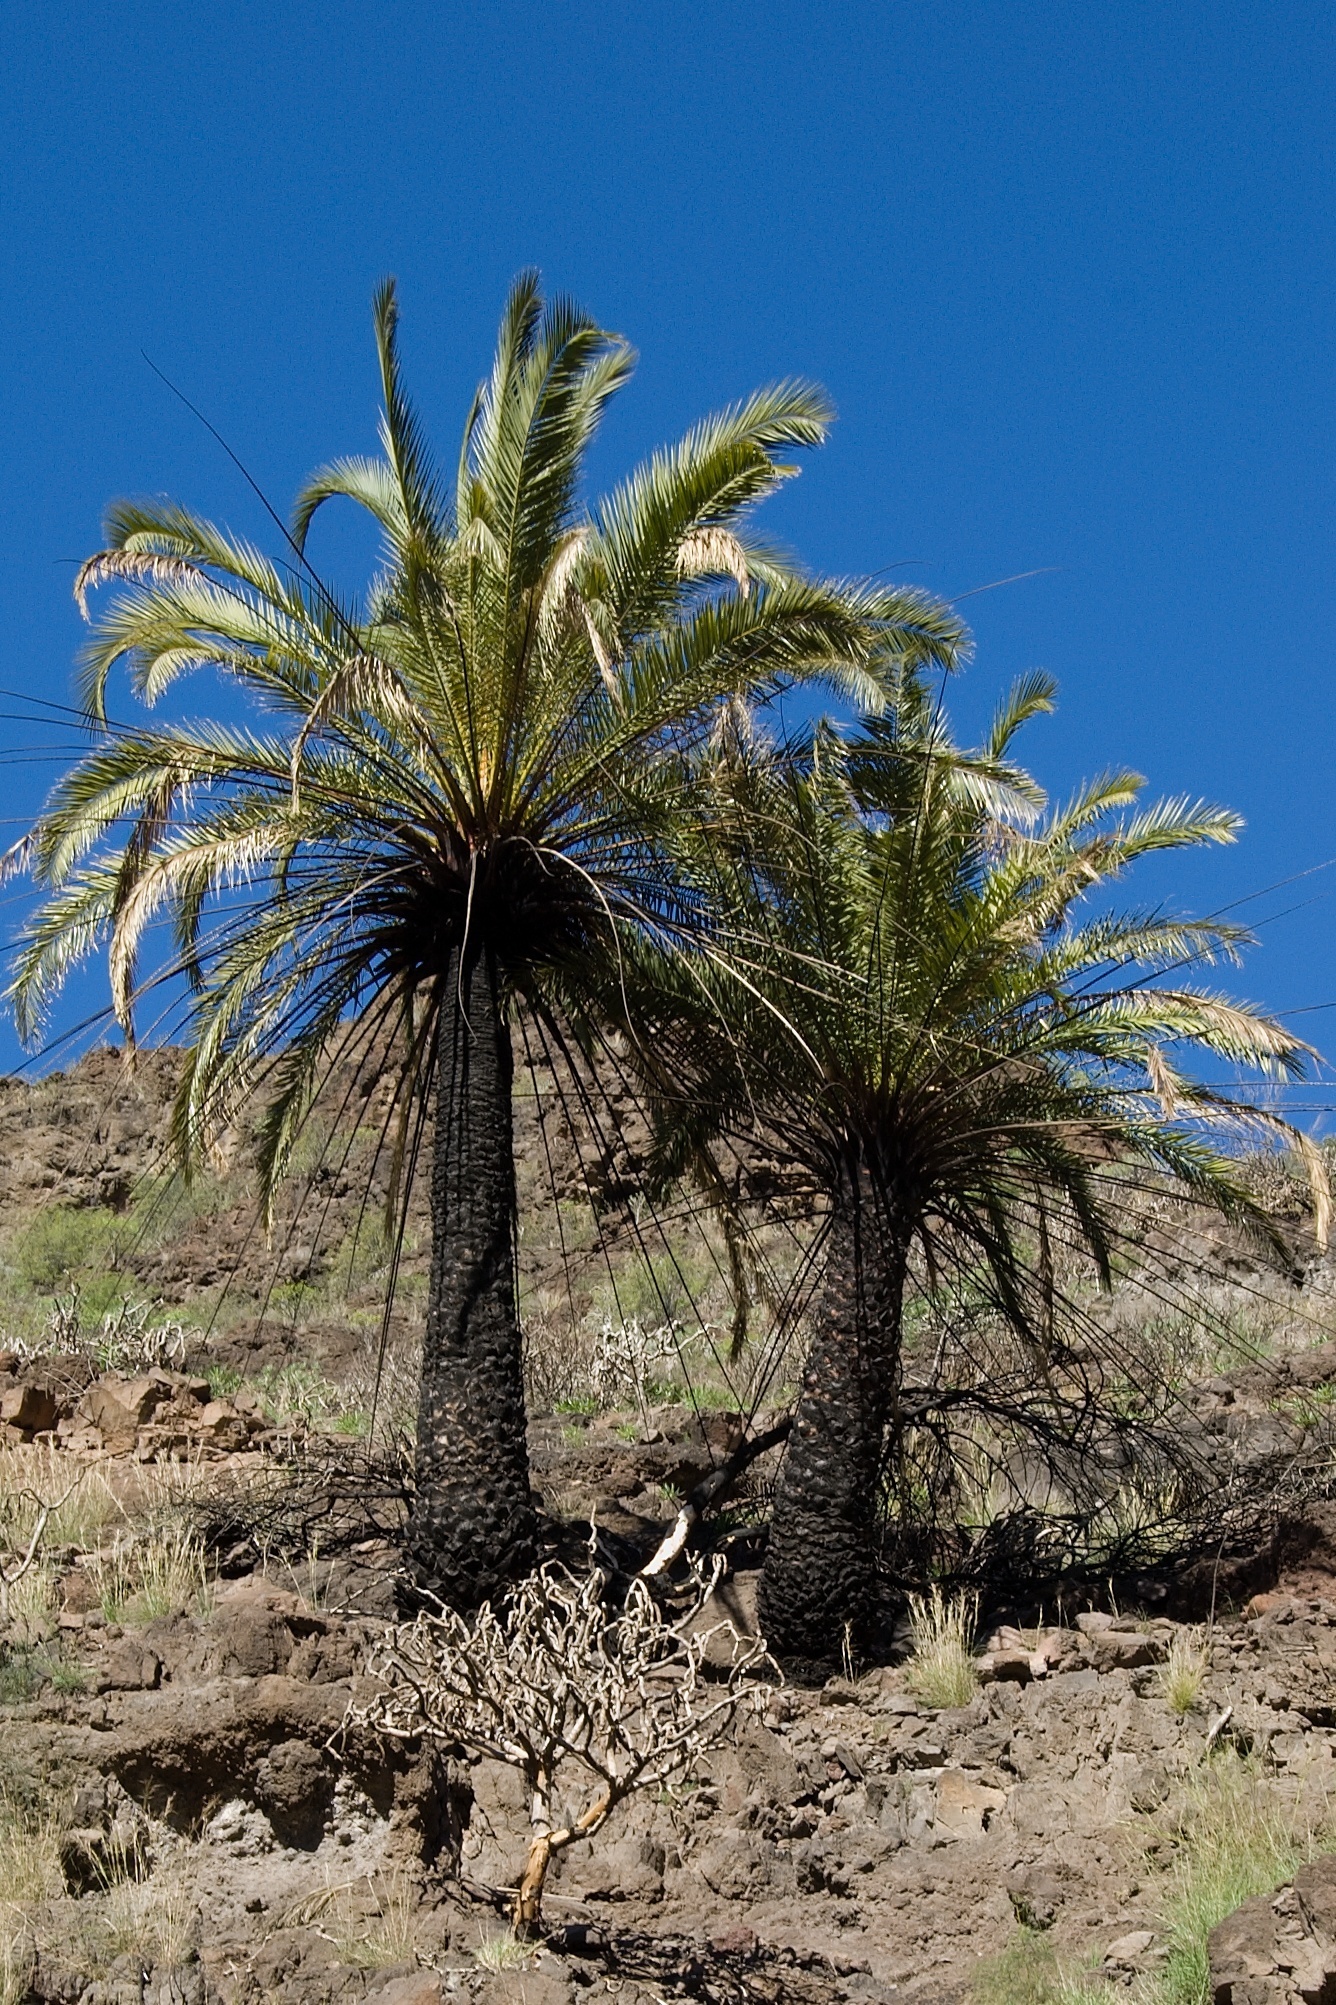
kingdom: Plantae
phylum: Tracheophyta
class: Liliopsida
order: Arecales
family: Arecaceae
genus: Phoenix
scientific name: Phoenix canariensis
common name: Canary island date palm
